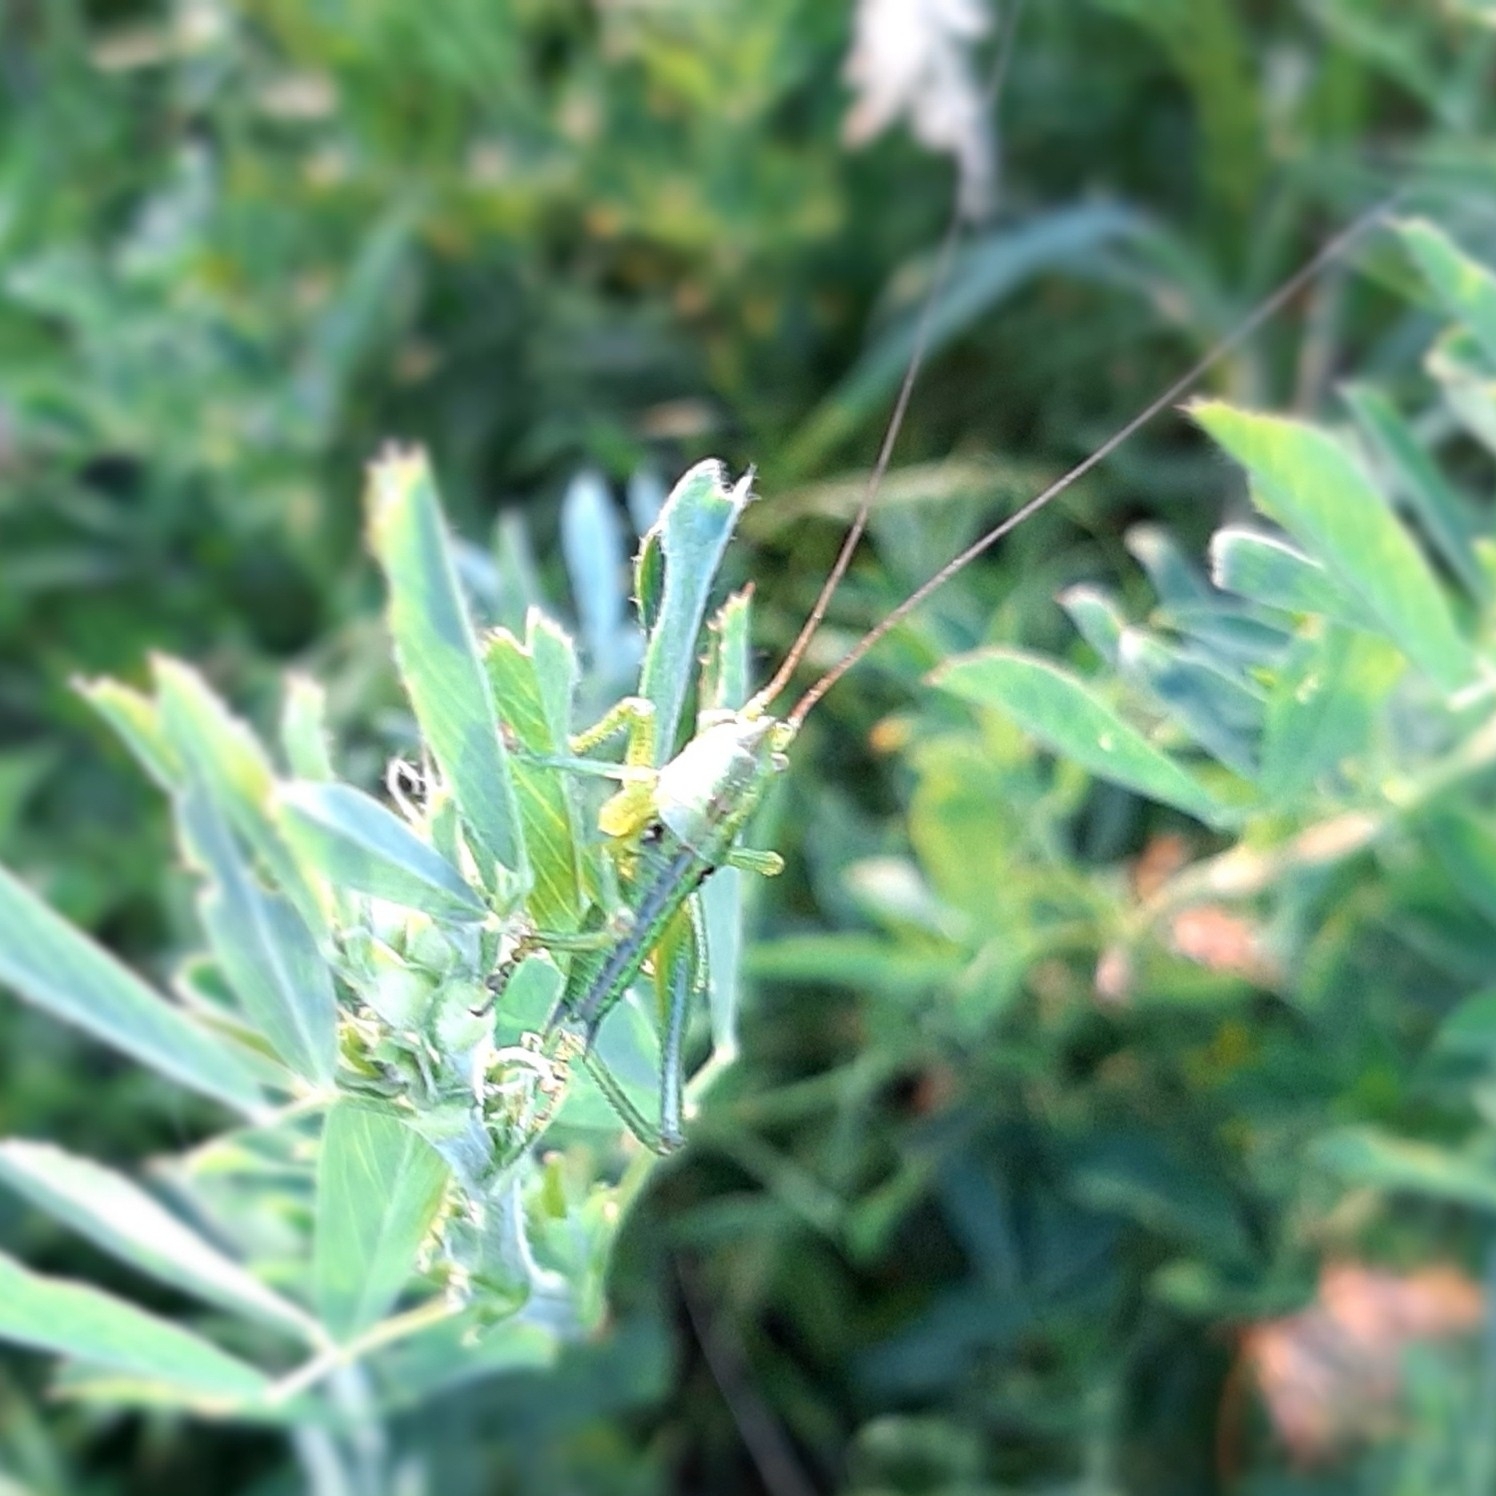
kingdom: Animalia
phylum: Arthropoda
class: Insecta
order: Orthoptera
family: Tettigoniidae
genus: Tettigonia
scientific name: Tettigonia viridissima
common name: Great green bush-cricket
